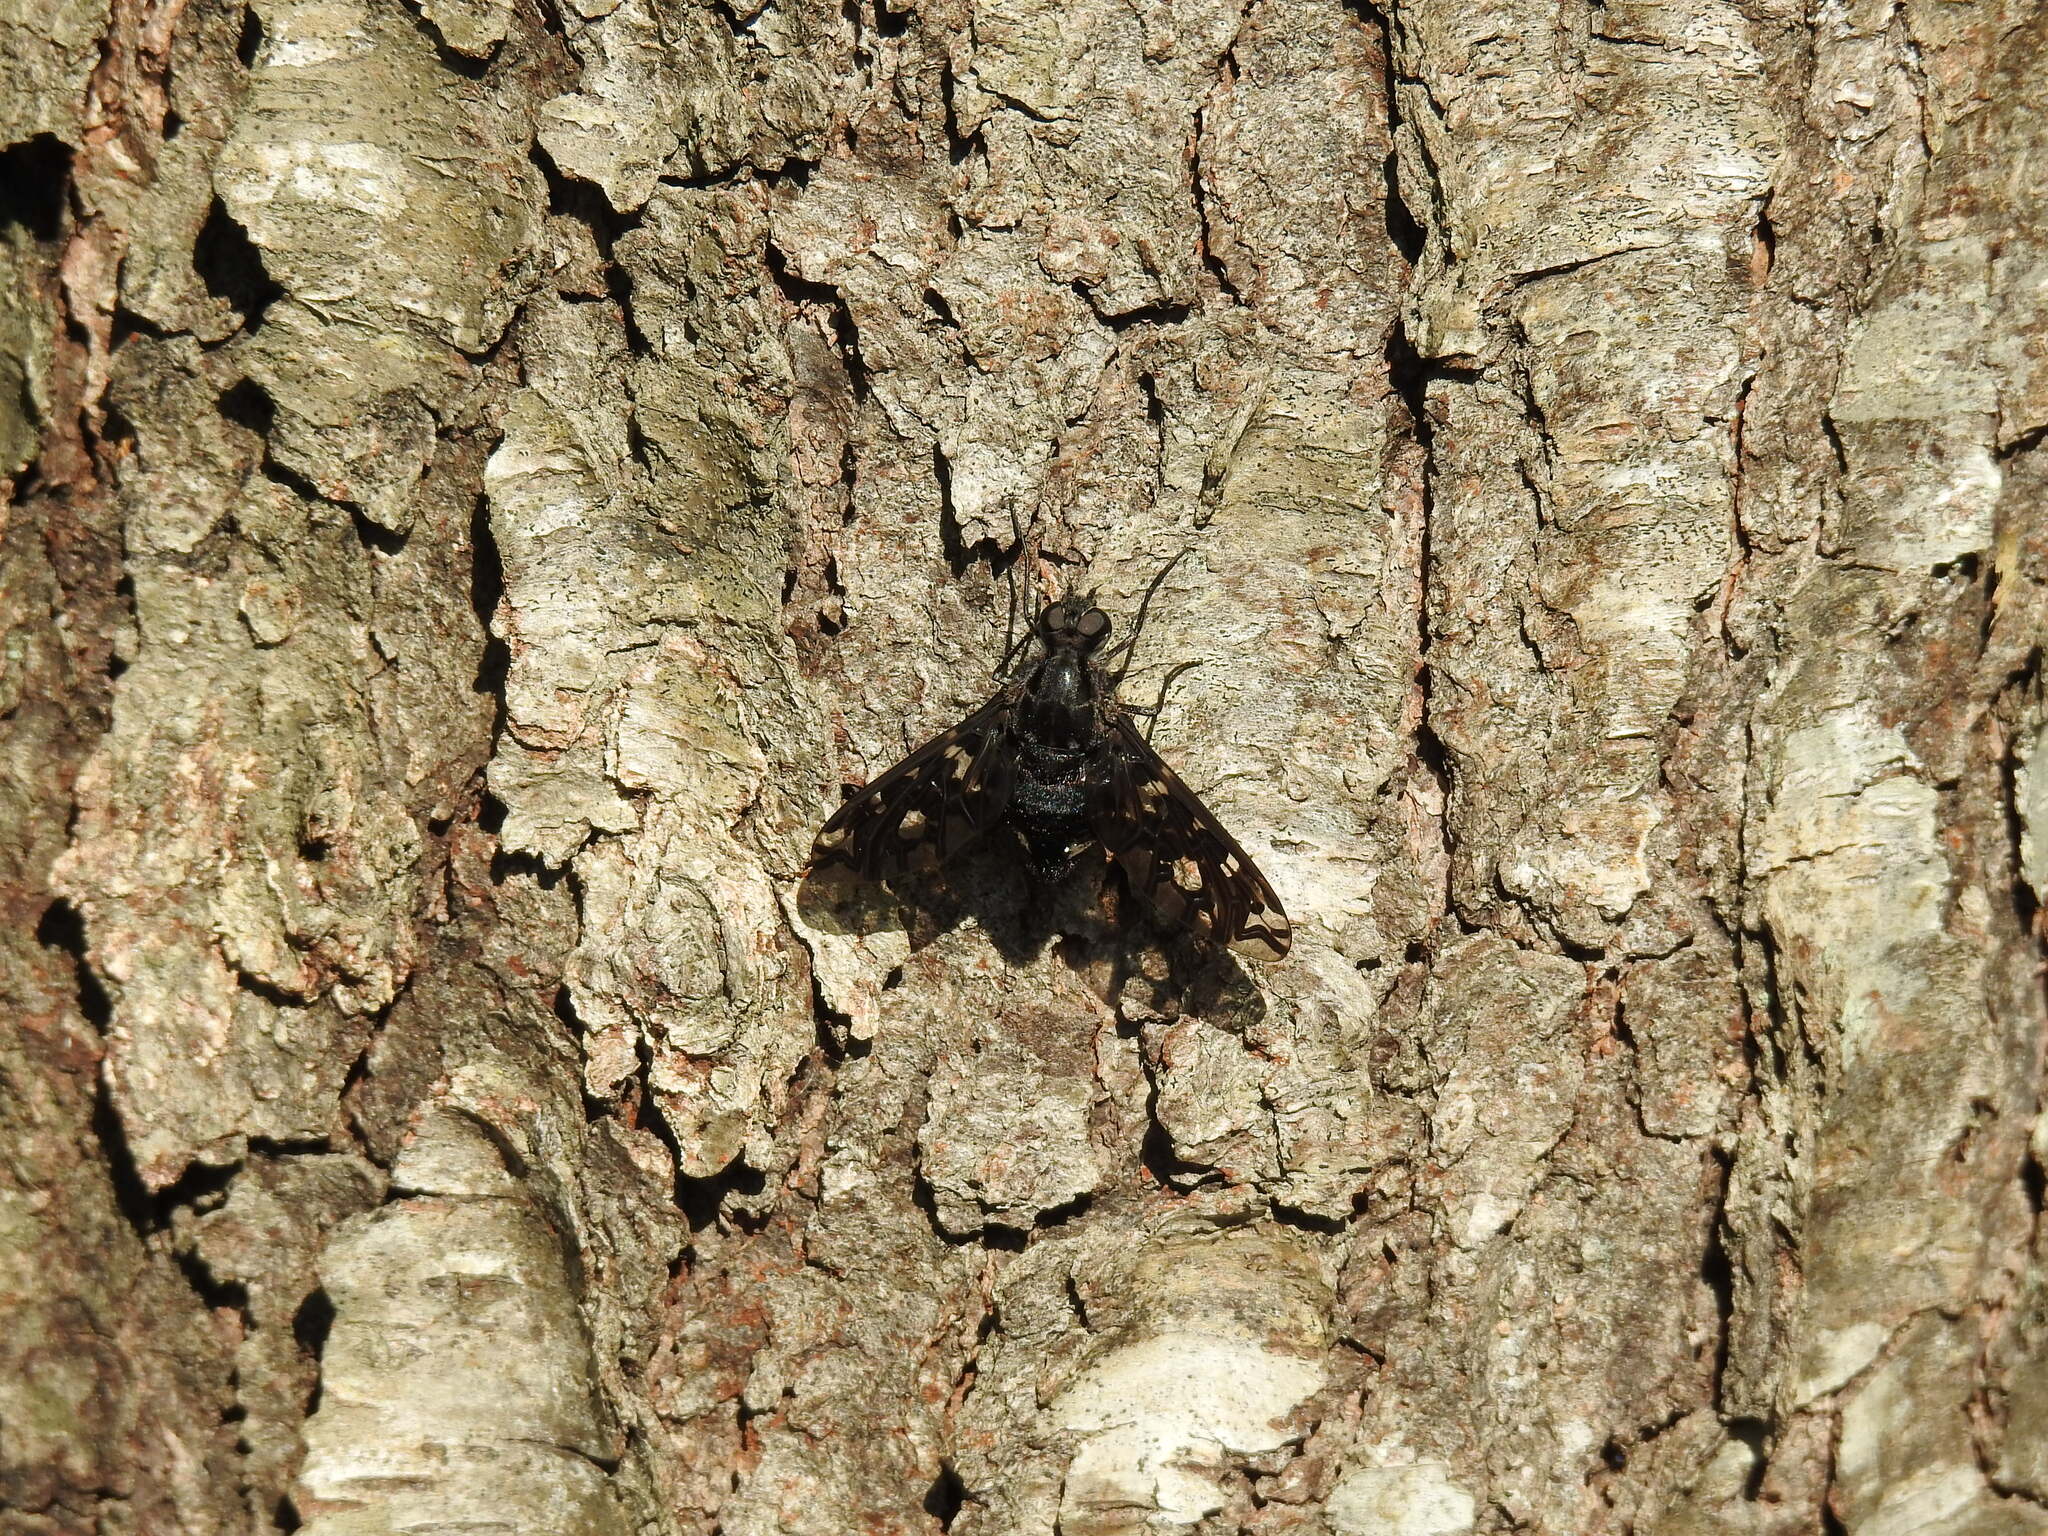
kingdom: Animalia
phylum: Arthropoda
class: Insecta
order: Diptera
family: Bombyliidae
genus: Xenox
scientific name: Xenox tigrinus
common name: Tiger bee fly
